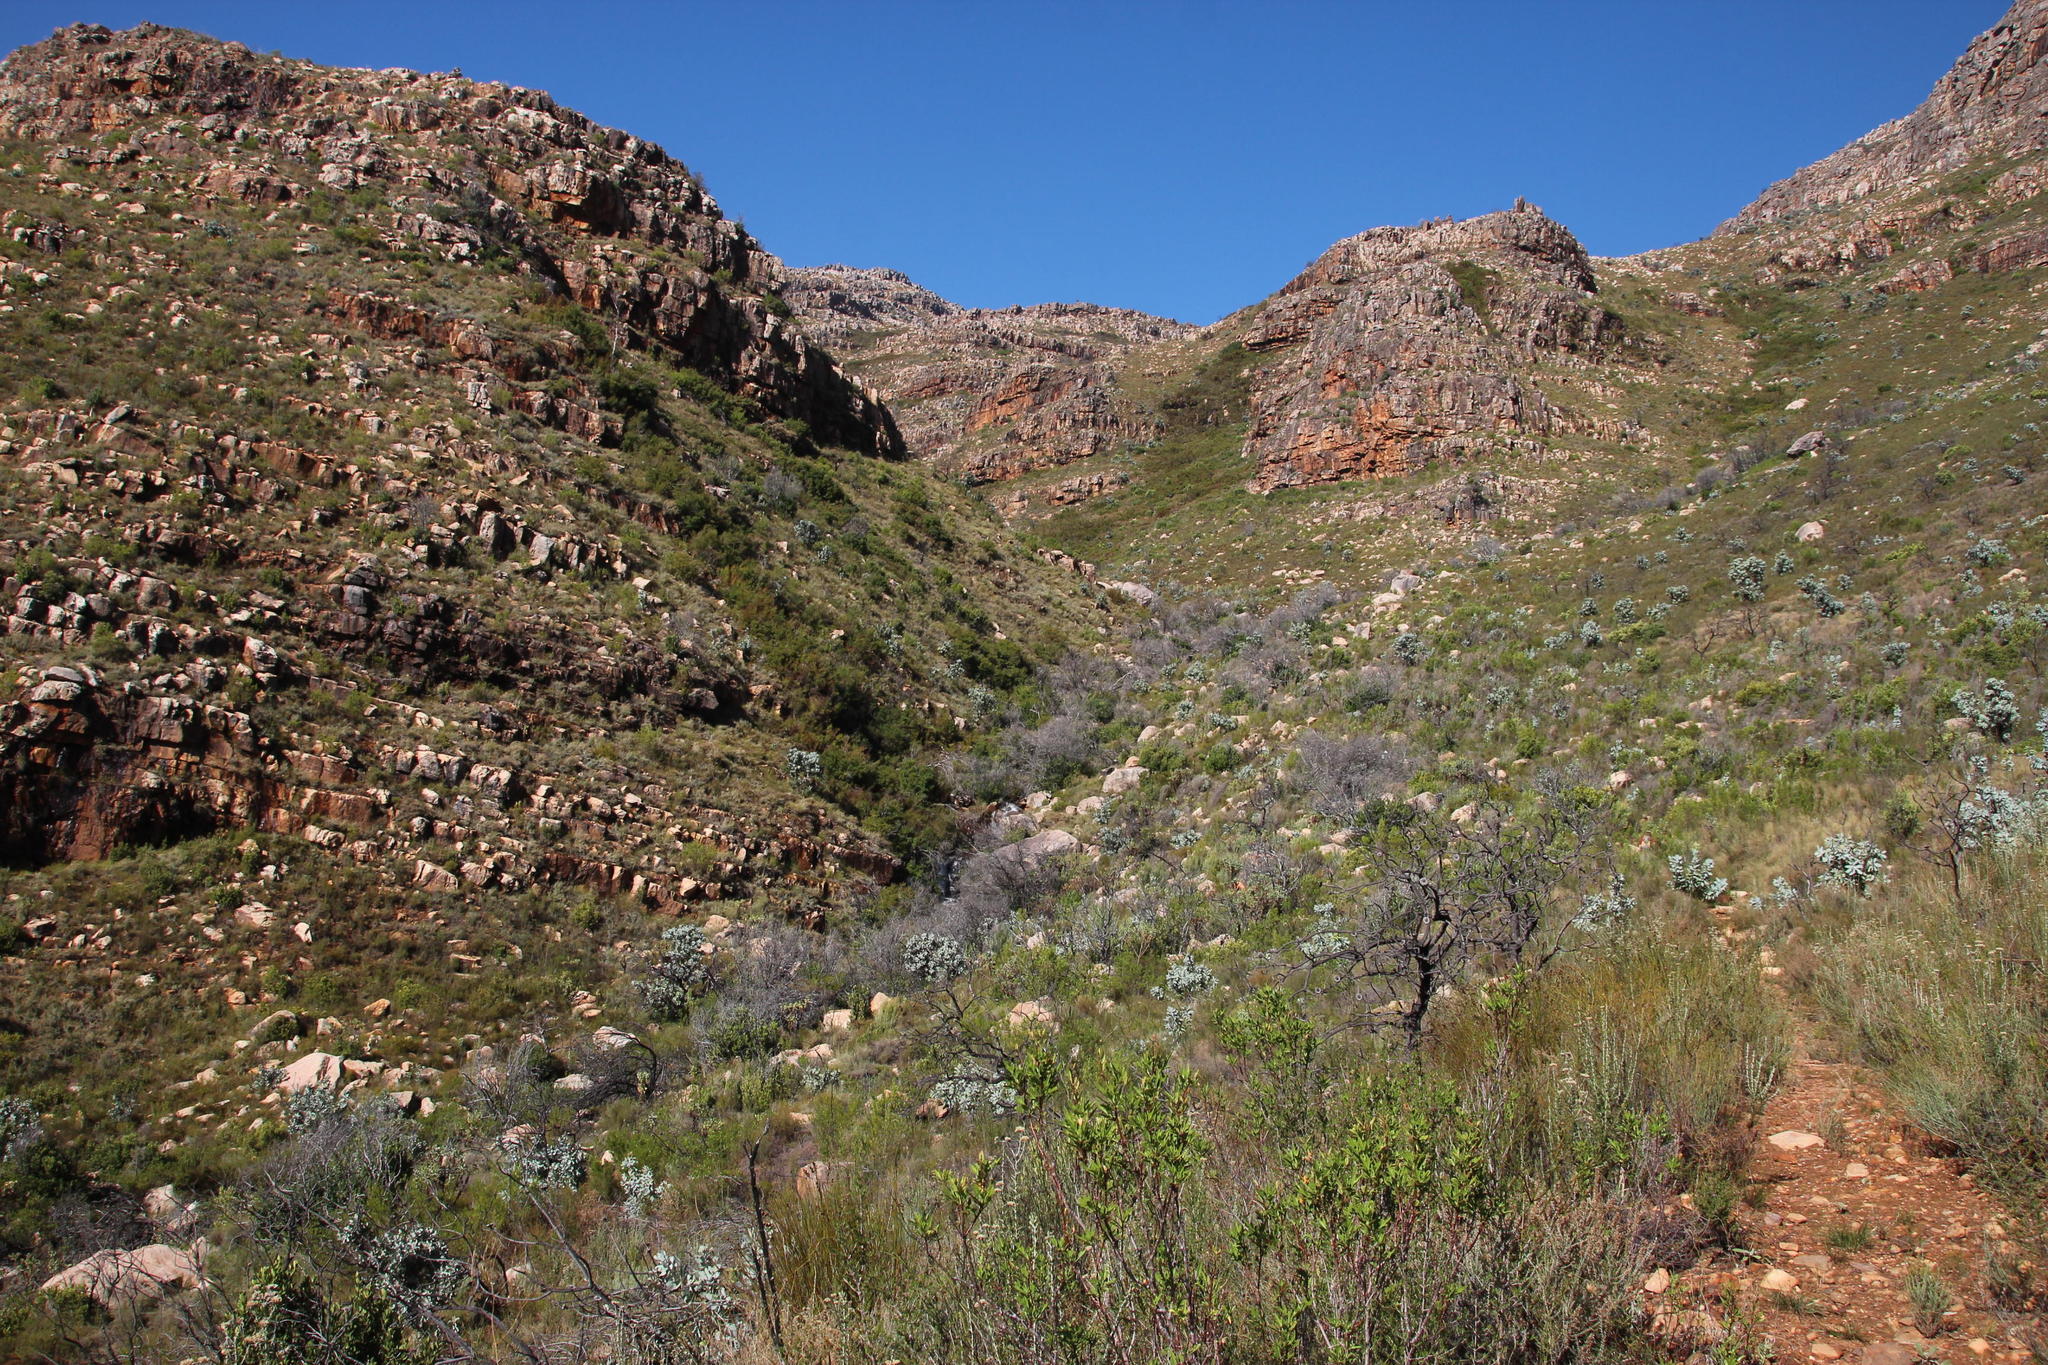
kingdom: Plantae
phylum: Tracheophyta
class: Magnoliopsida
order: Proteales
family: Proteaceae
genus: Protea
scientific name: Protea nitida
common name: Tree protea
